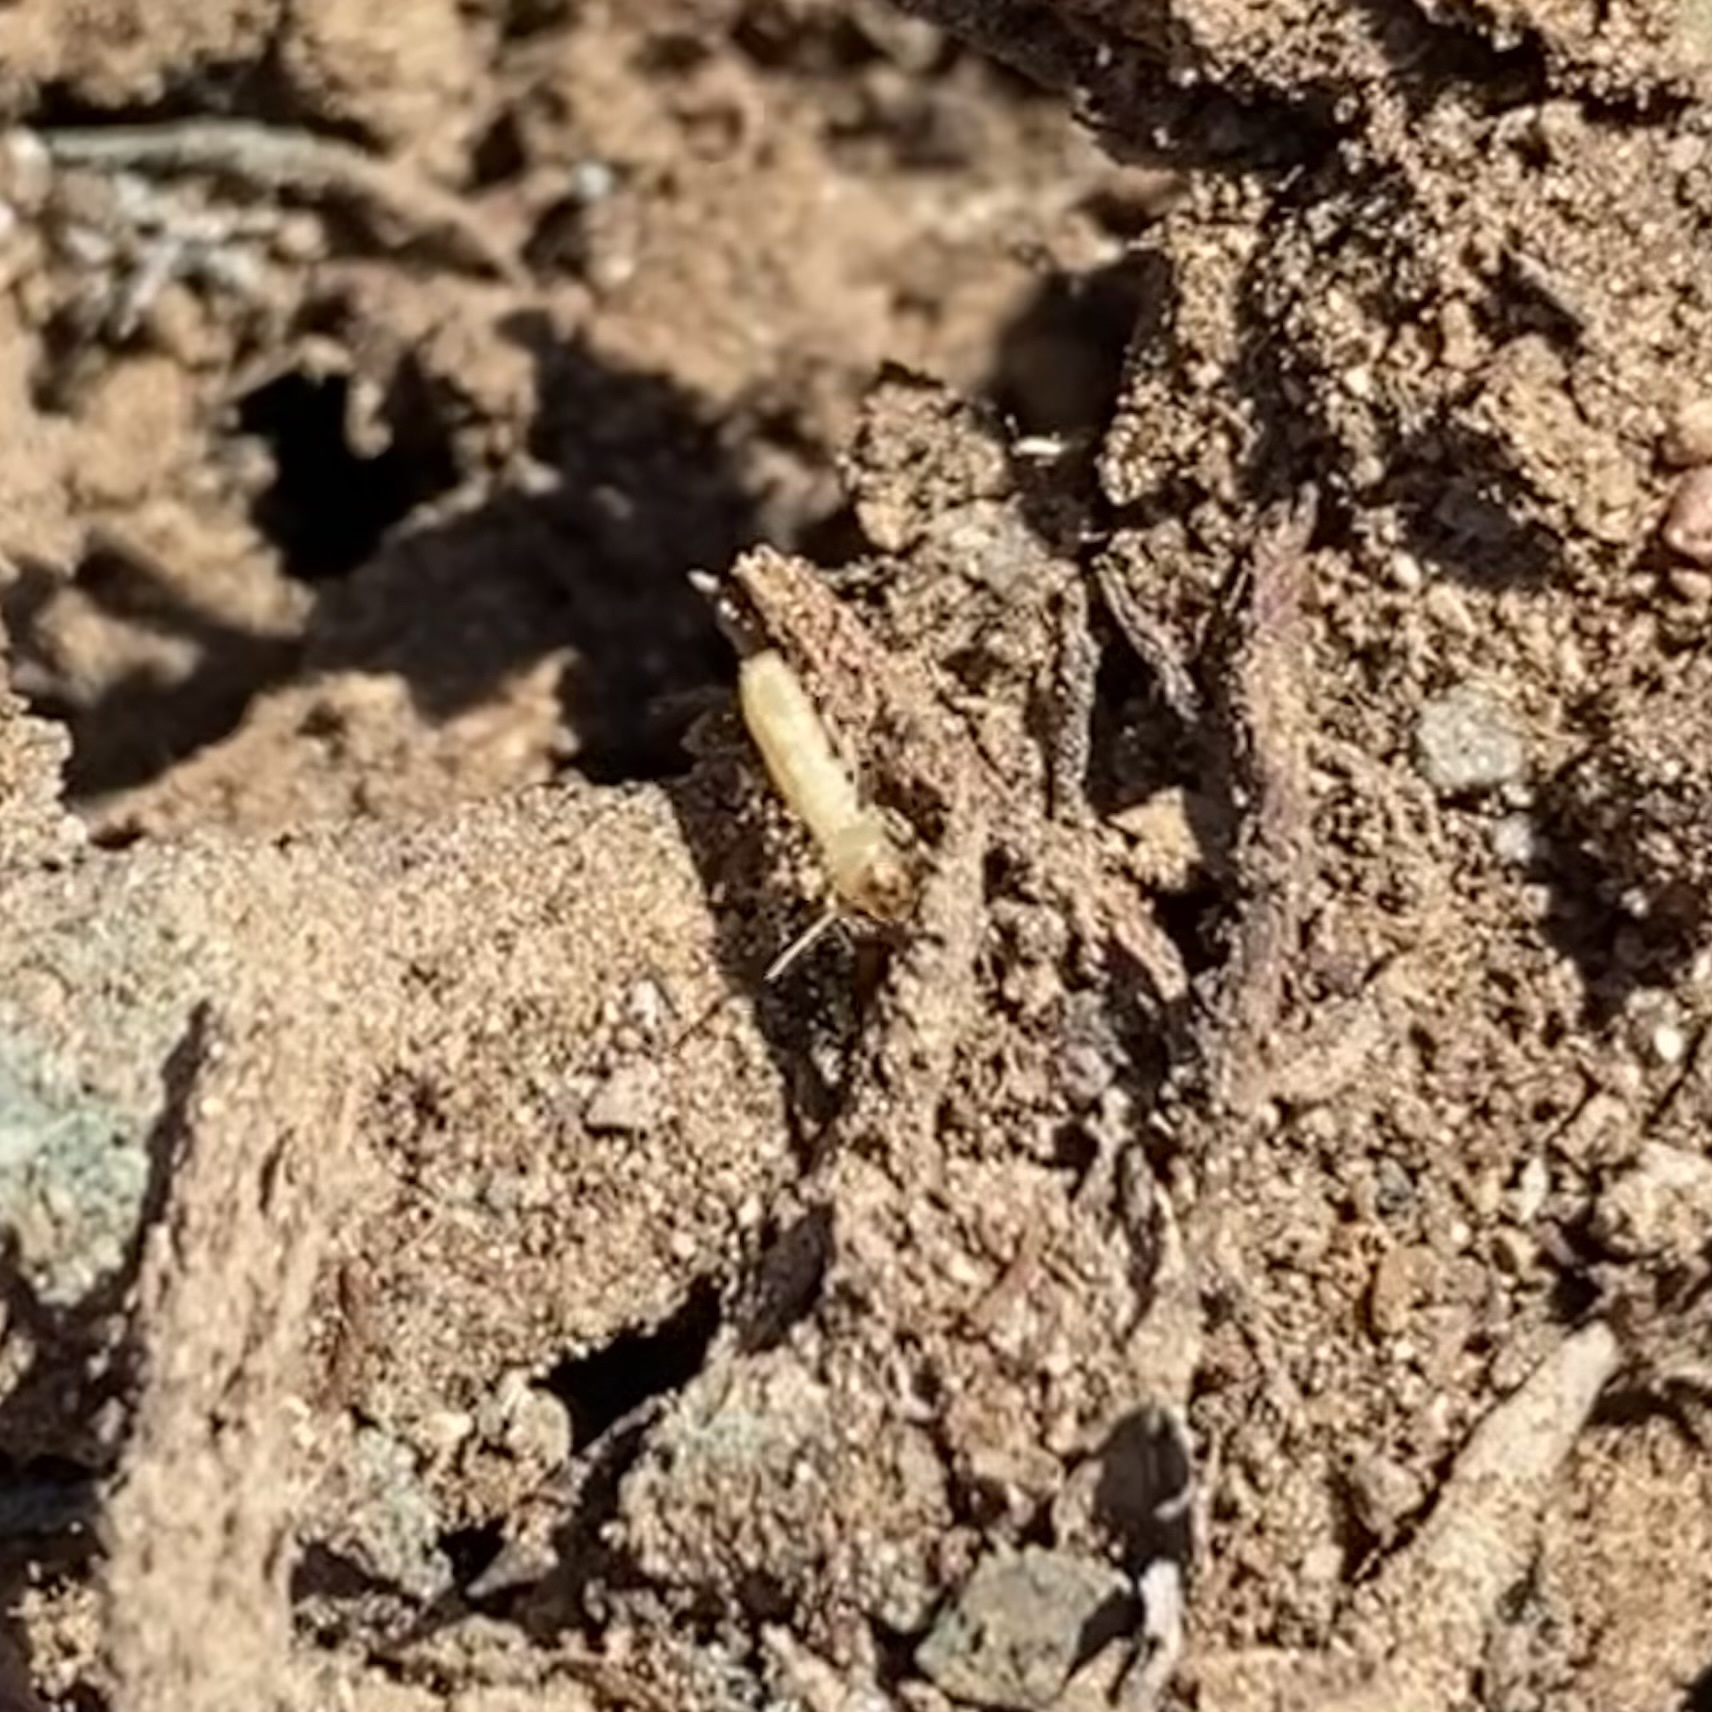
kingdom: Animalia
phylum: Arthropoda
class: Insecta
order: Blattodea
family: Rhinotermitidae
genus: Reticulitermes
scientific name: Reticulitermes
